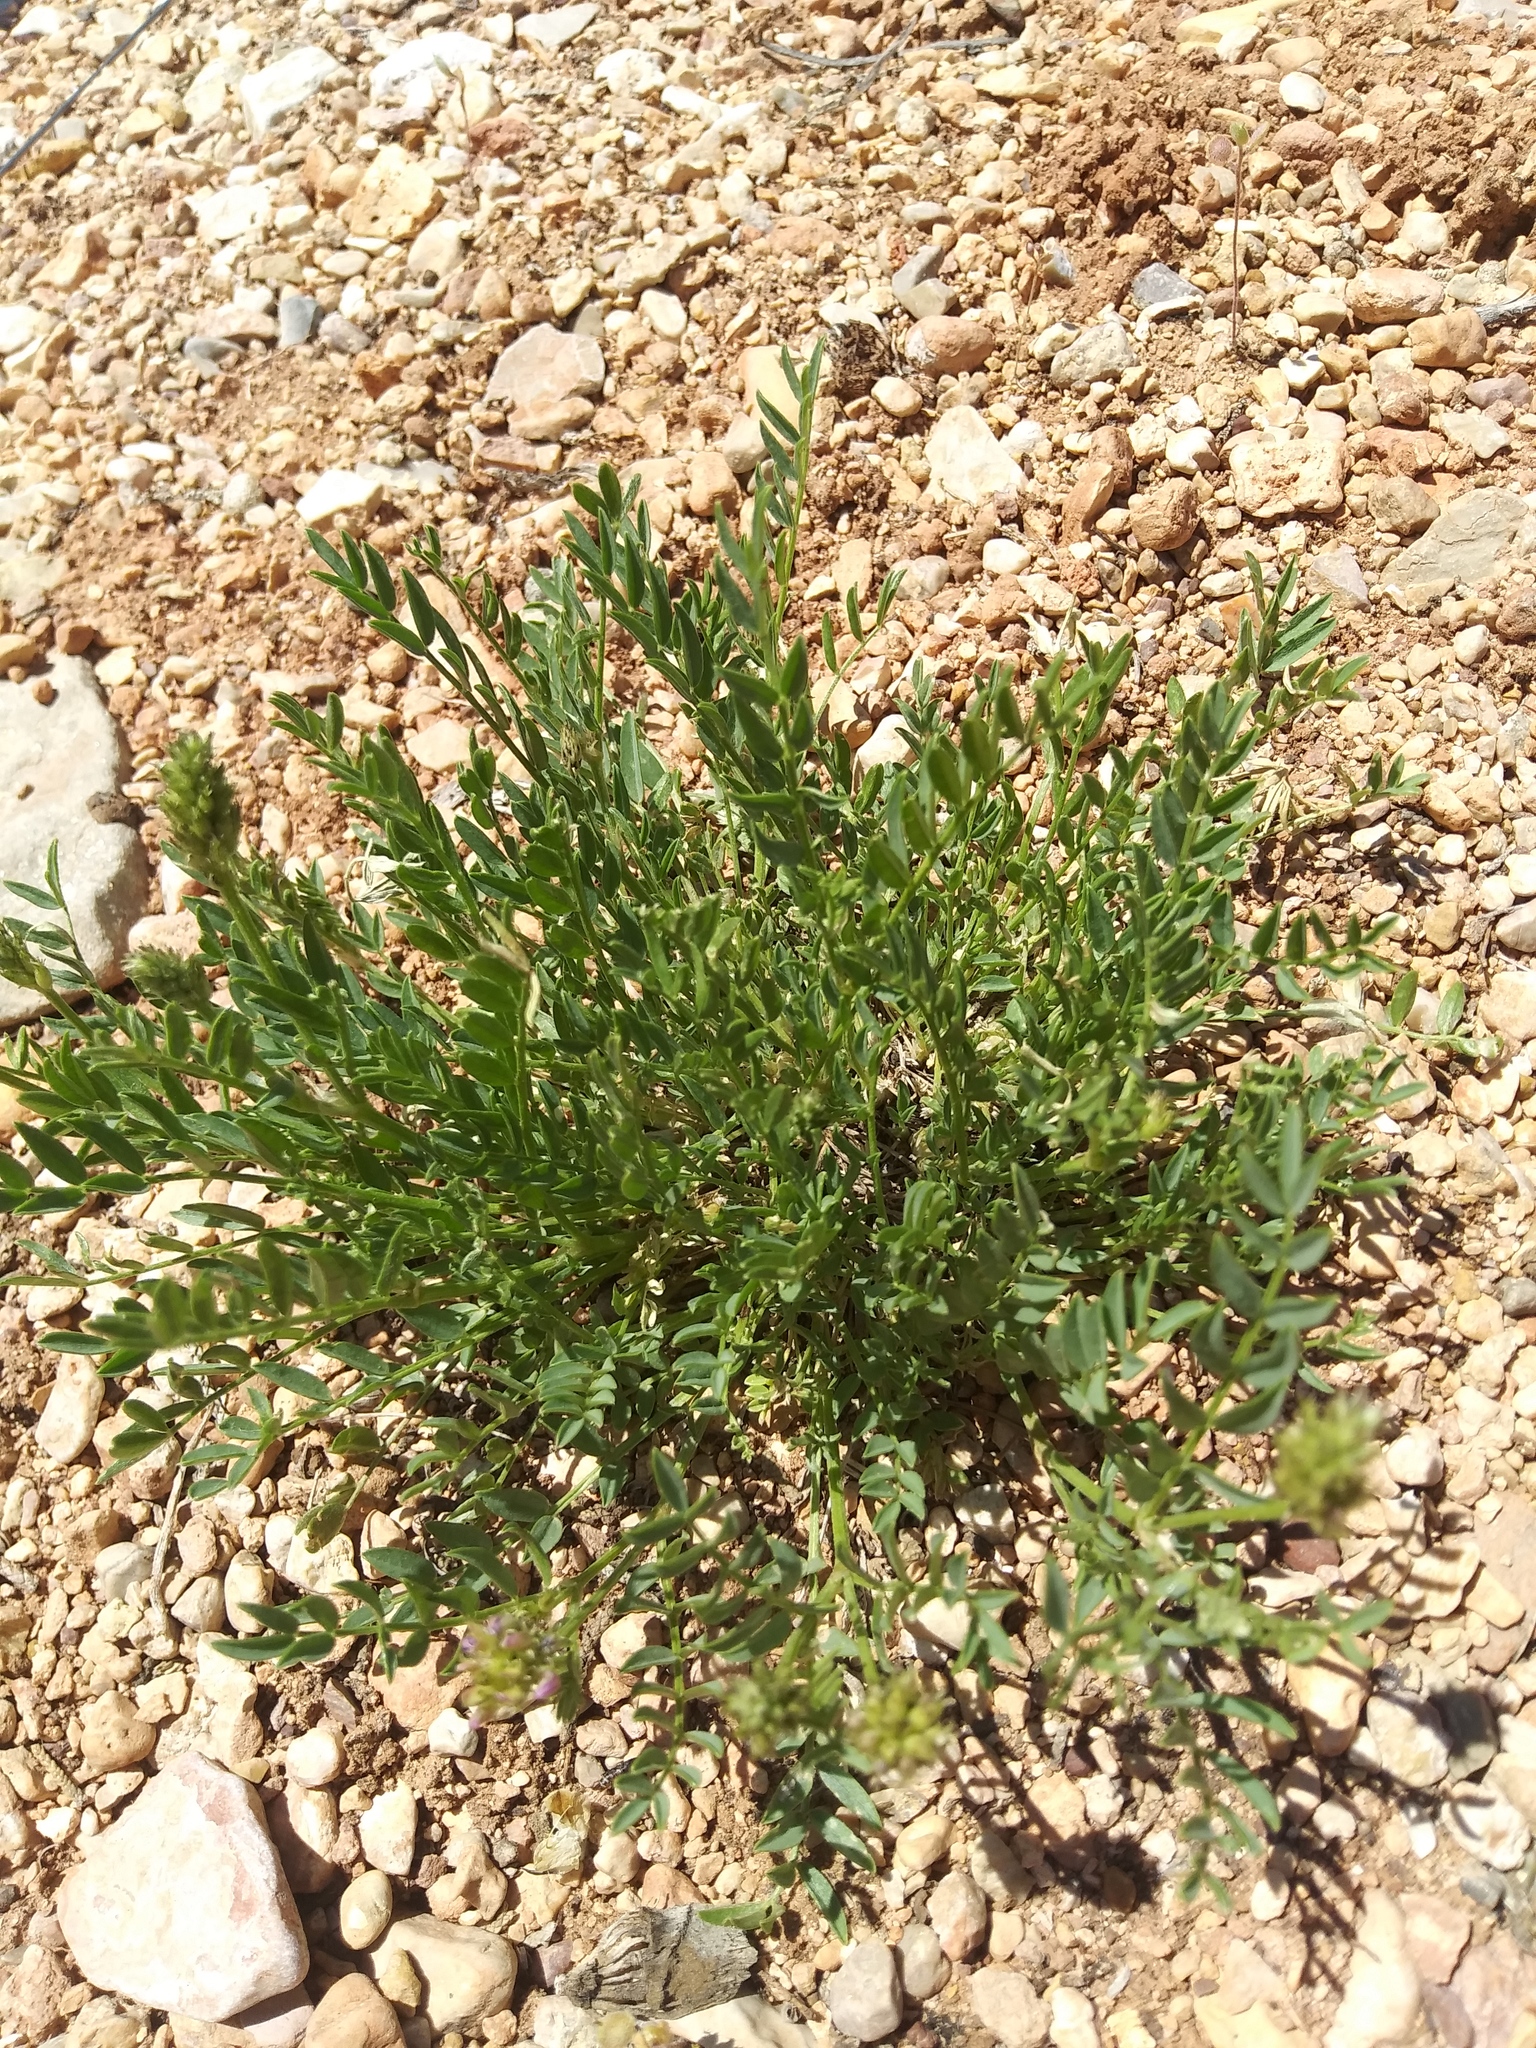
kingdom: Plantae
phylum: Tracheophyta
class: Magnoliopsida
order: Fabales
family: Fabaceae
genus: Astragalus
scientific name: Astragalus laxmannii
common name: Laxmann's milk-vetch
